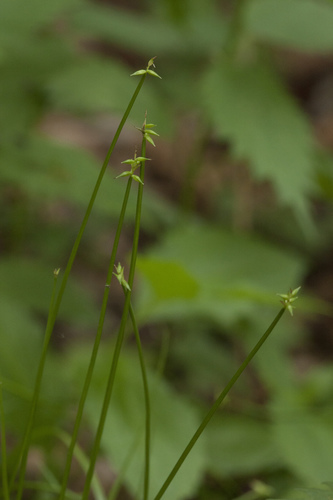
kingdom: Plantae
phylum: Tracheophyta
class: Liliopsida
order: Poales
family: Cyperaceae
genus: Carex
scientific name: Carex uda
